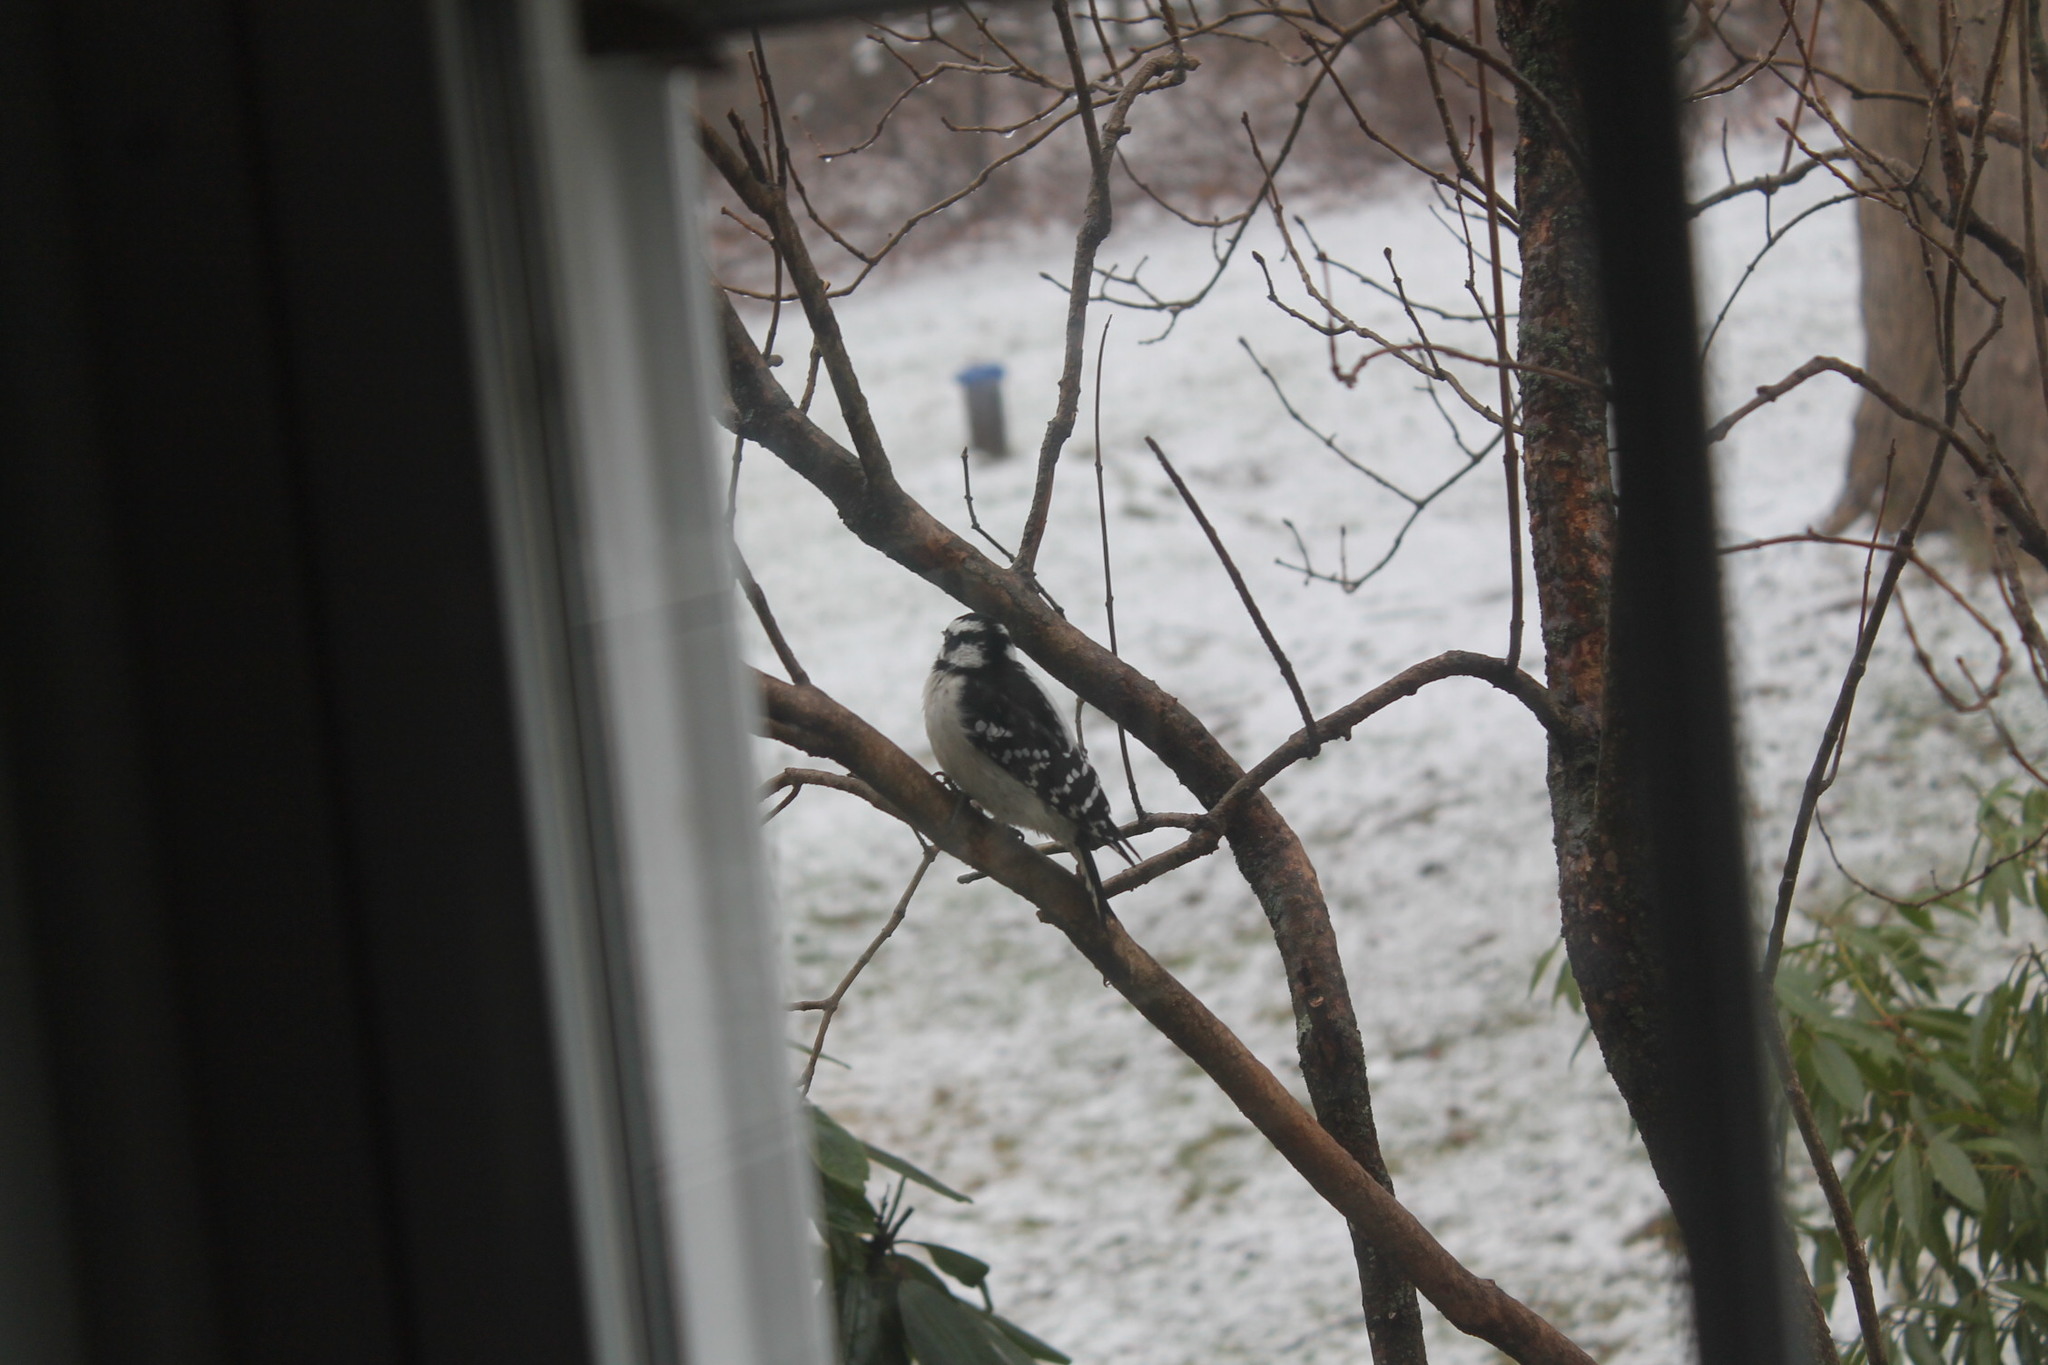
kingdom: Animalia
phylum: Chordata
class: Aves
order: Piciformes
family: Picidae
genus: Dryobates
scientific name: Dryobates pubescens
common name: Downy woodpecker
